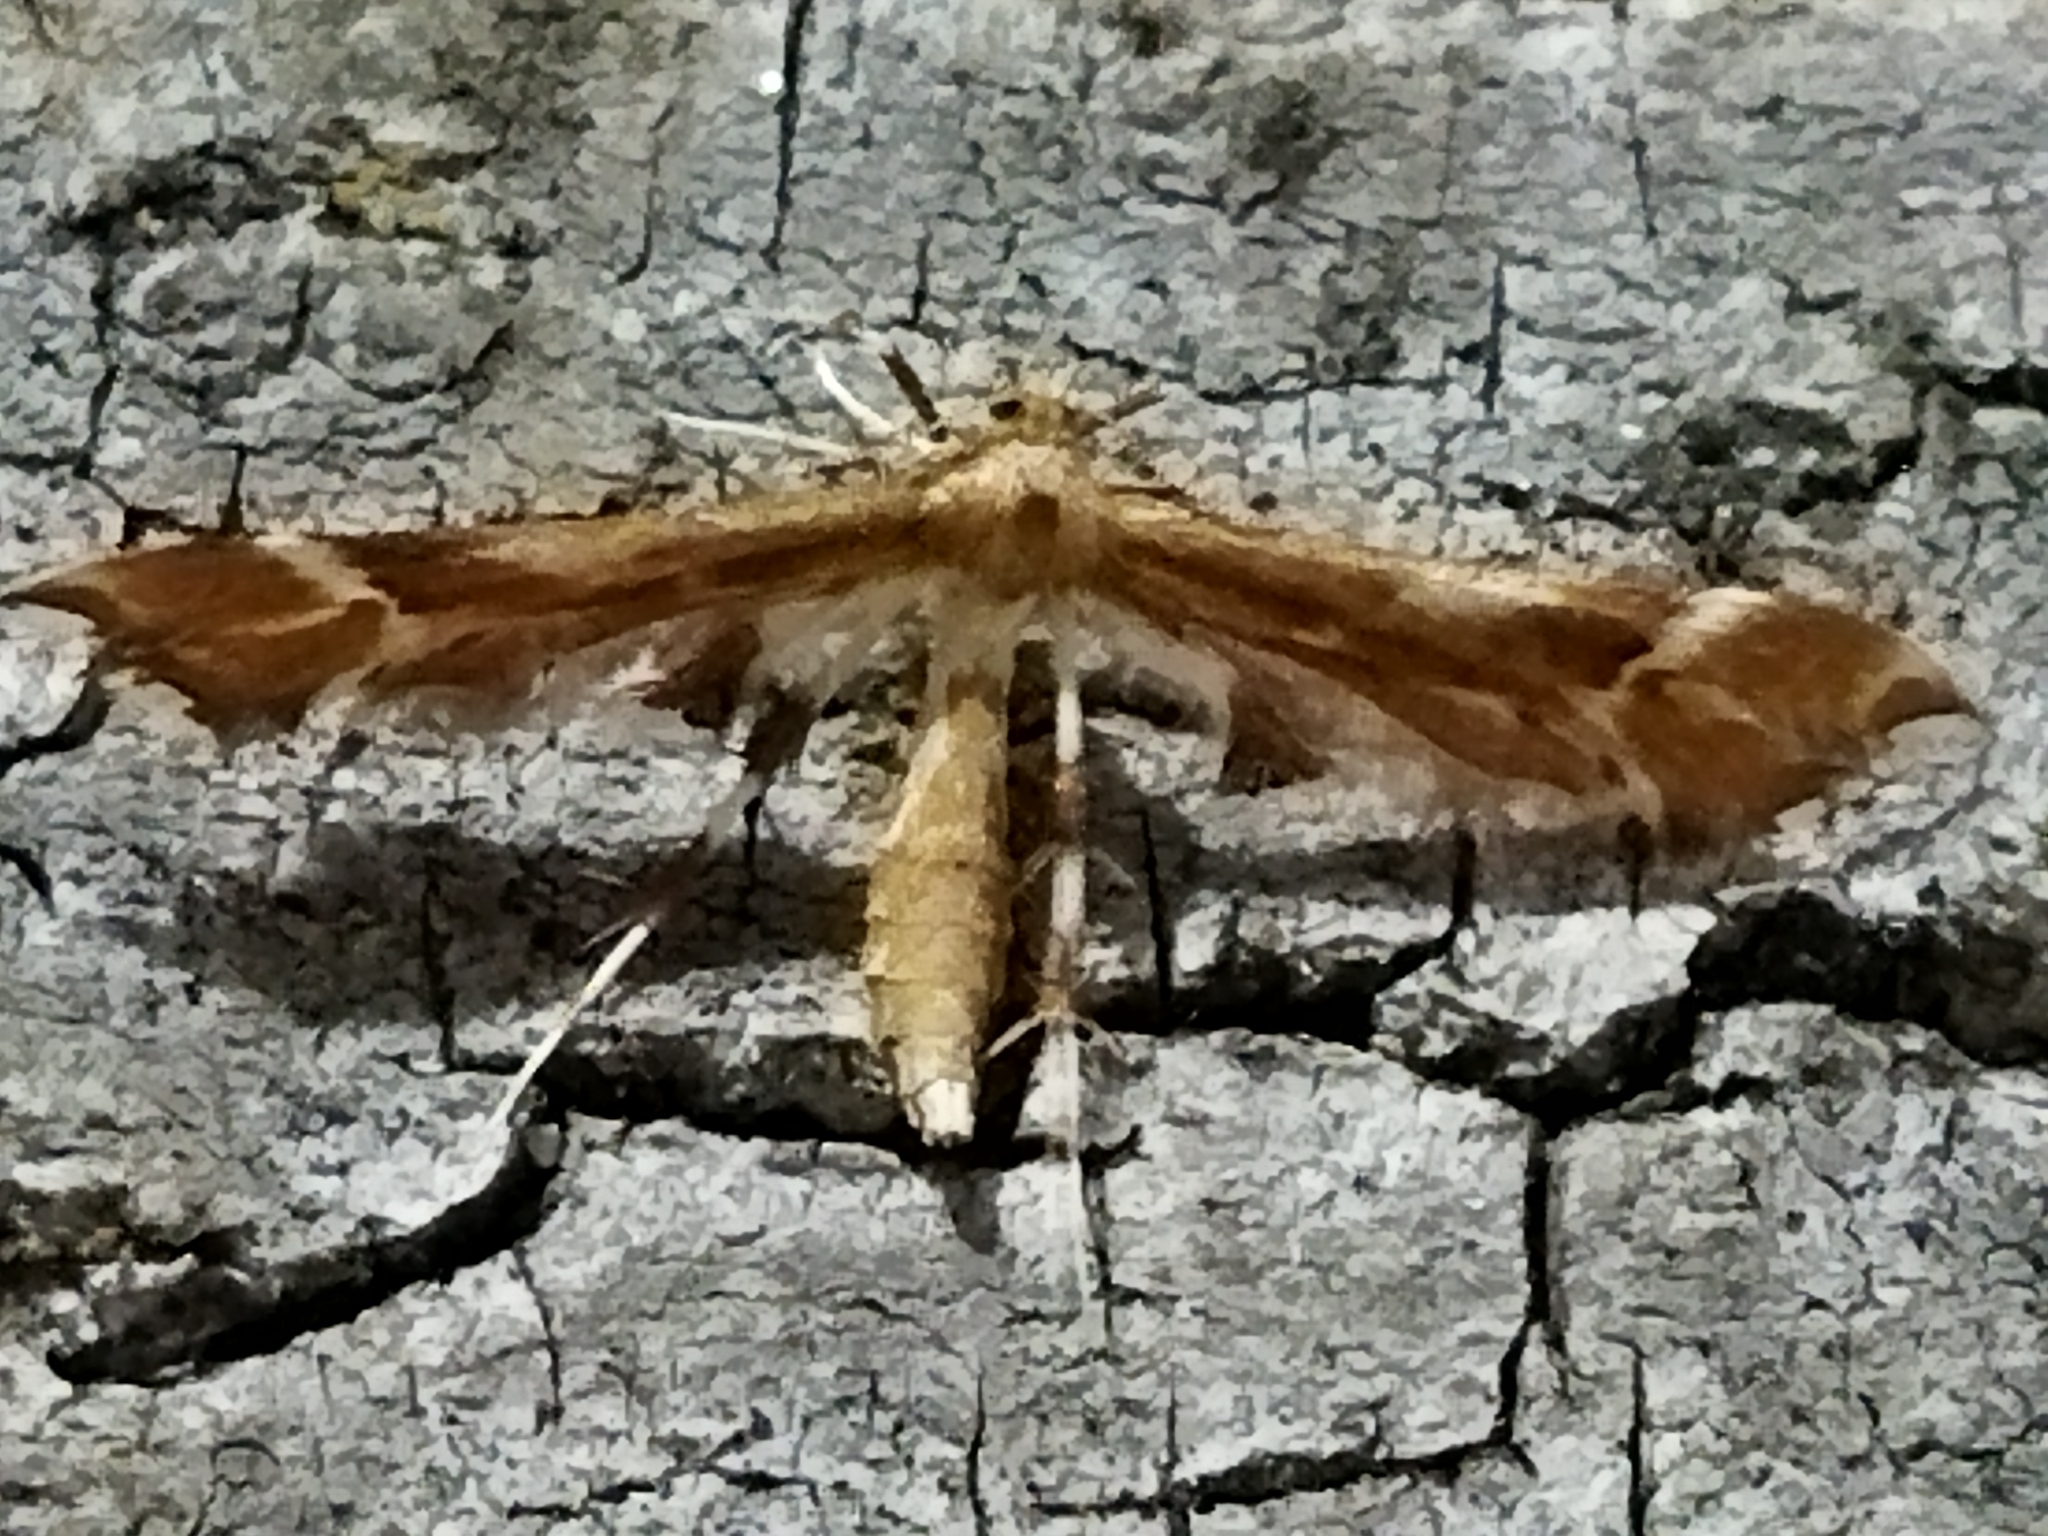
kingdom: Animalia
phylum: Arthropoda
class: Insecta
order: Lepidoptera
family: Pterophoridae
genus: Cnaemidophorus
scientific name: Cnaemidophorus rhododactyla
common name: Rose plume
